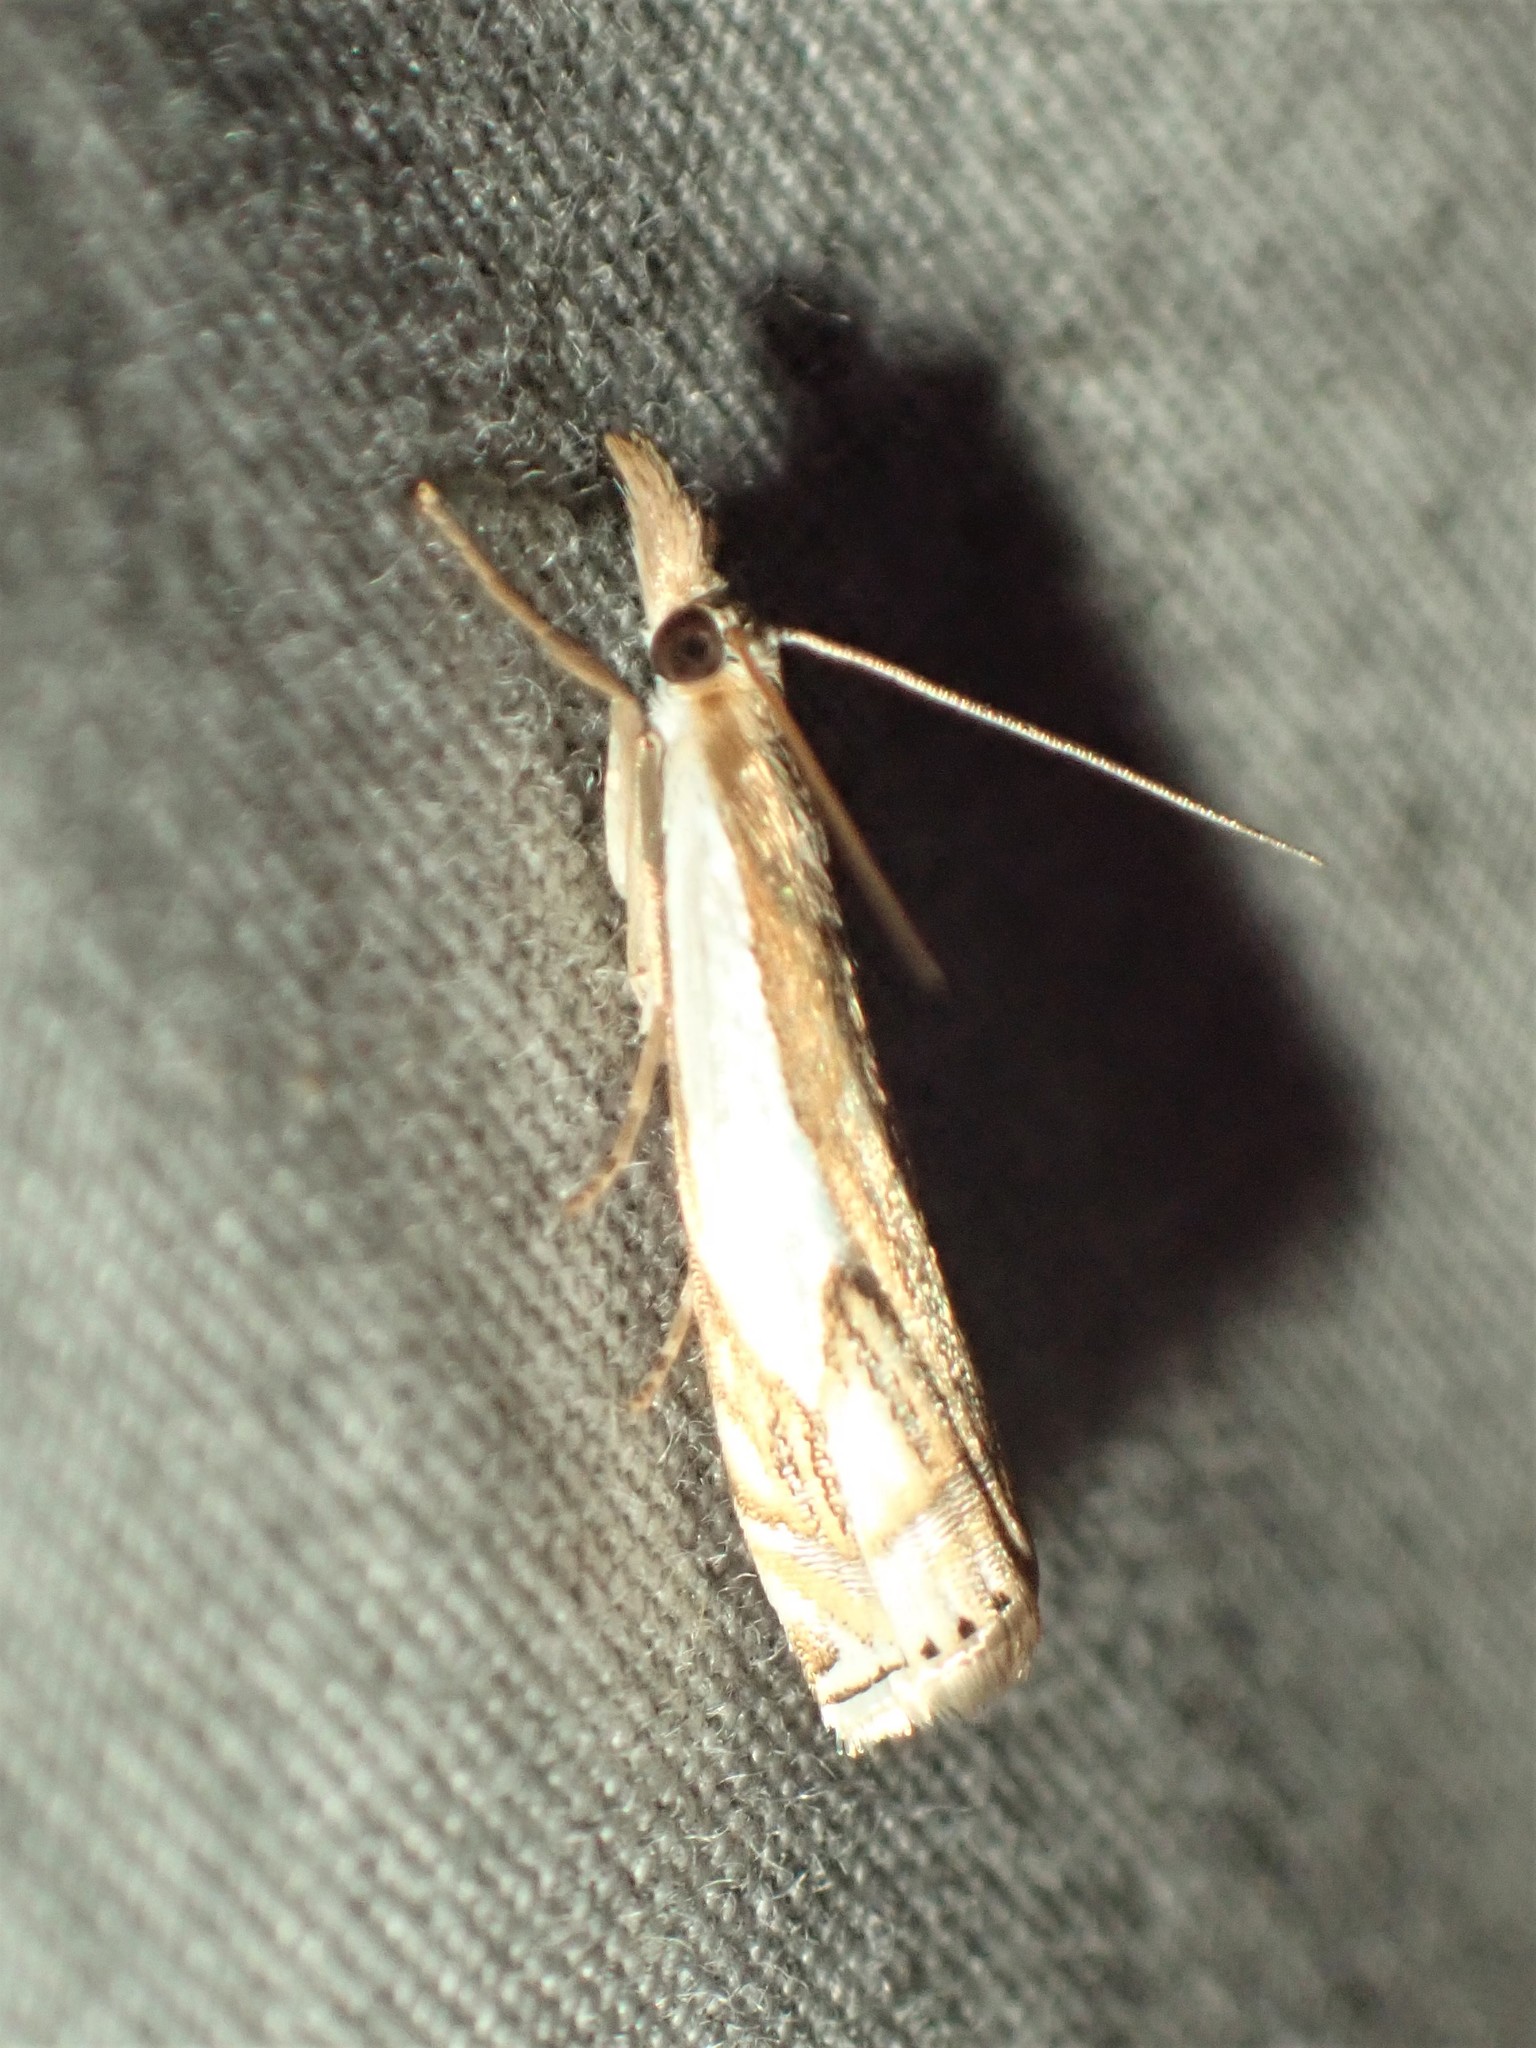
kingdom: Animalia
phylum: Arthropoda
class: Insecta
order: Lepidoptera
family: Crambidae
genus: Crambus
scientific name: Crambus agitatellus
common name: Double-banded grass-veneer
